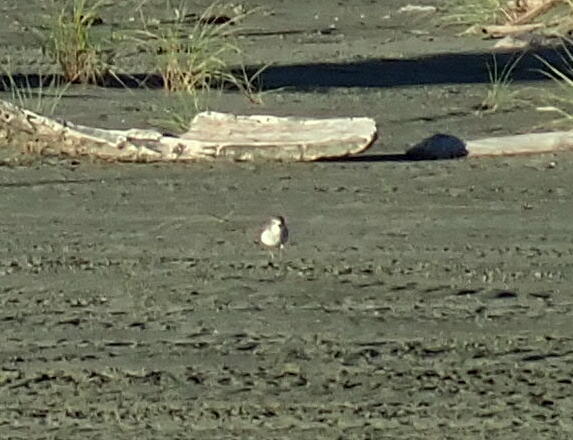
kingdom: Animalia
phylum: Chordata
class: Aves
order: Charadriiformes
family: Charadriidae
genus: Anarhynchus
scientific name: Anarhynchus
